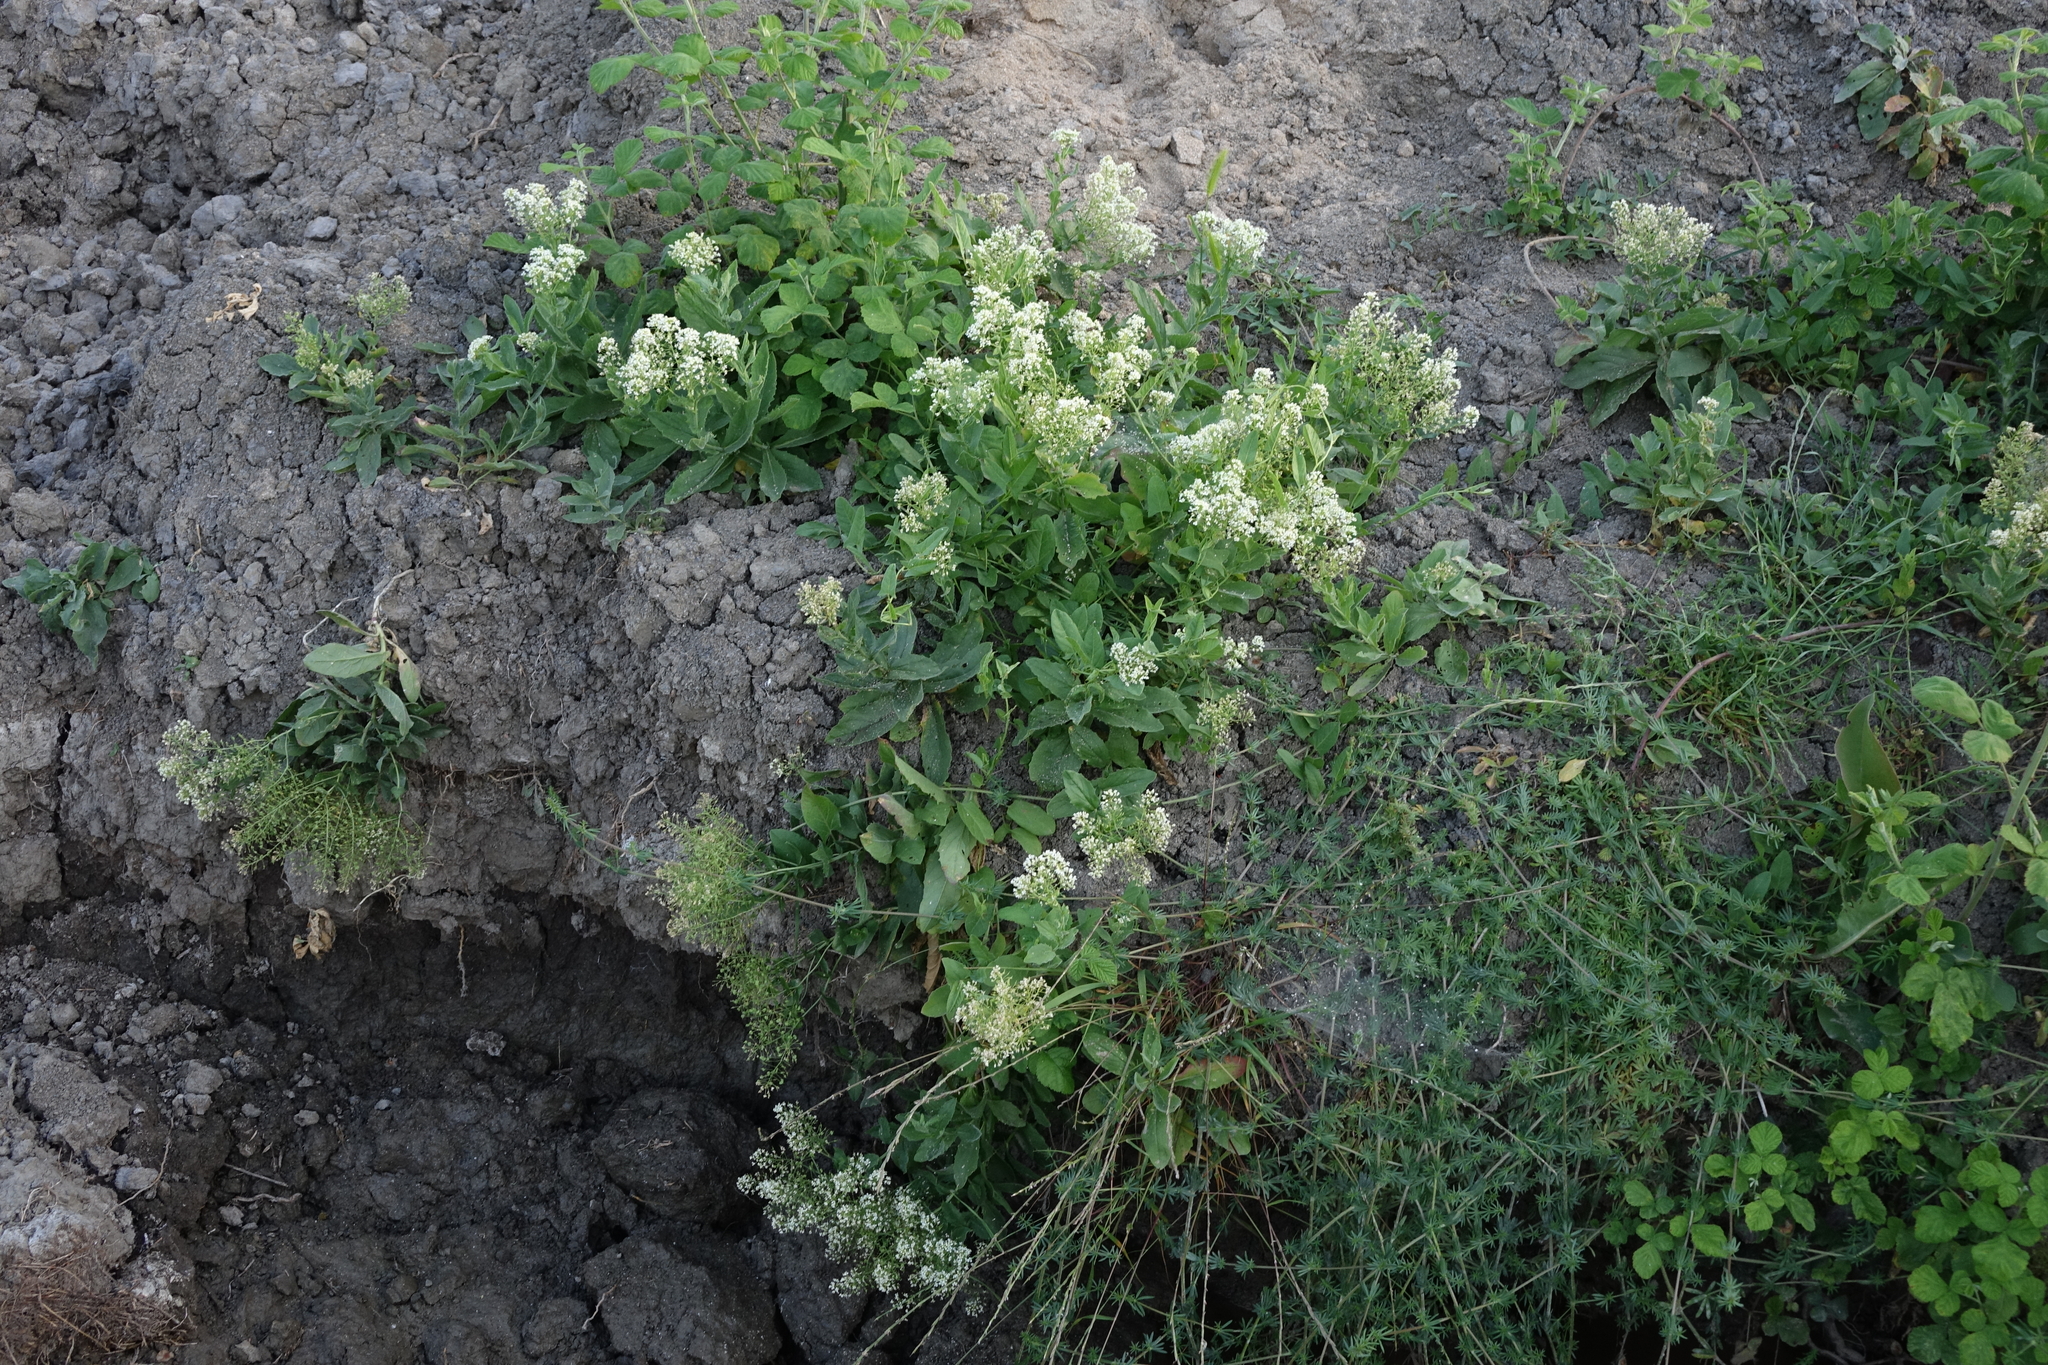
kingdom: Plantae
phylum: Tracheophyta
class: Magnoliopsida
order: Brassicales
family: Brassicaceae
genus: Lepidium
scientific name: Lepidium draba
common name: Hoary cress
